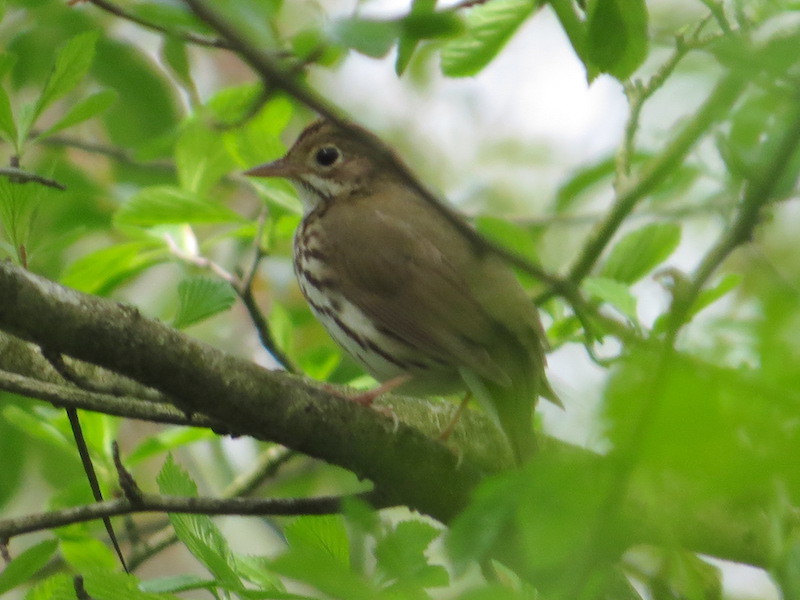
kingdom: Animalia
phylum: Chordata
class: Aves
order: Passeriformes
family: Parulidae
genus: Seiurus
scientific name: Seiurus aurocapilla
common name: Ovenbird
